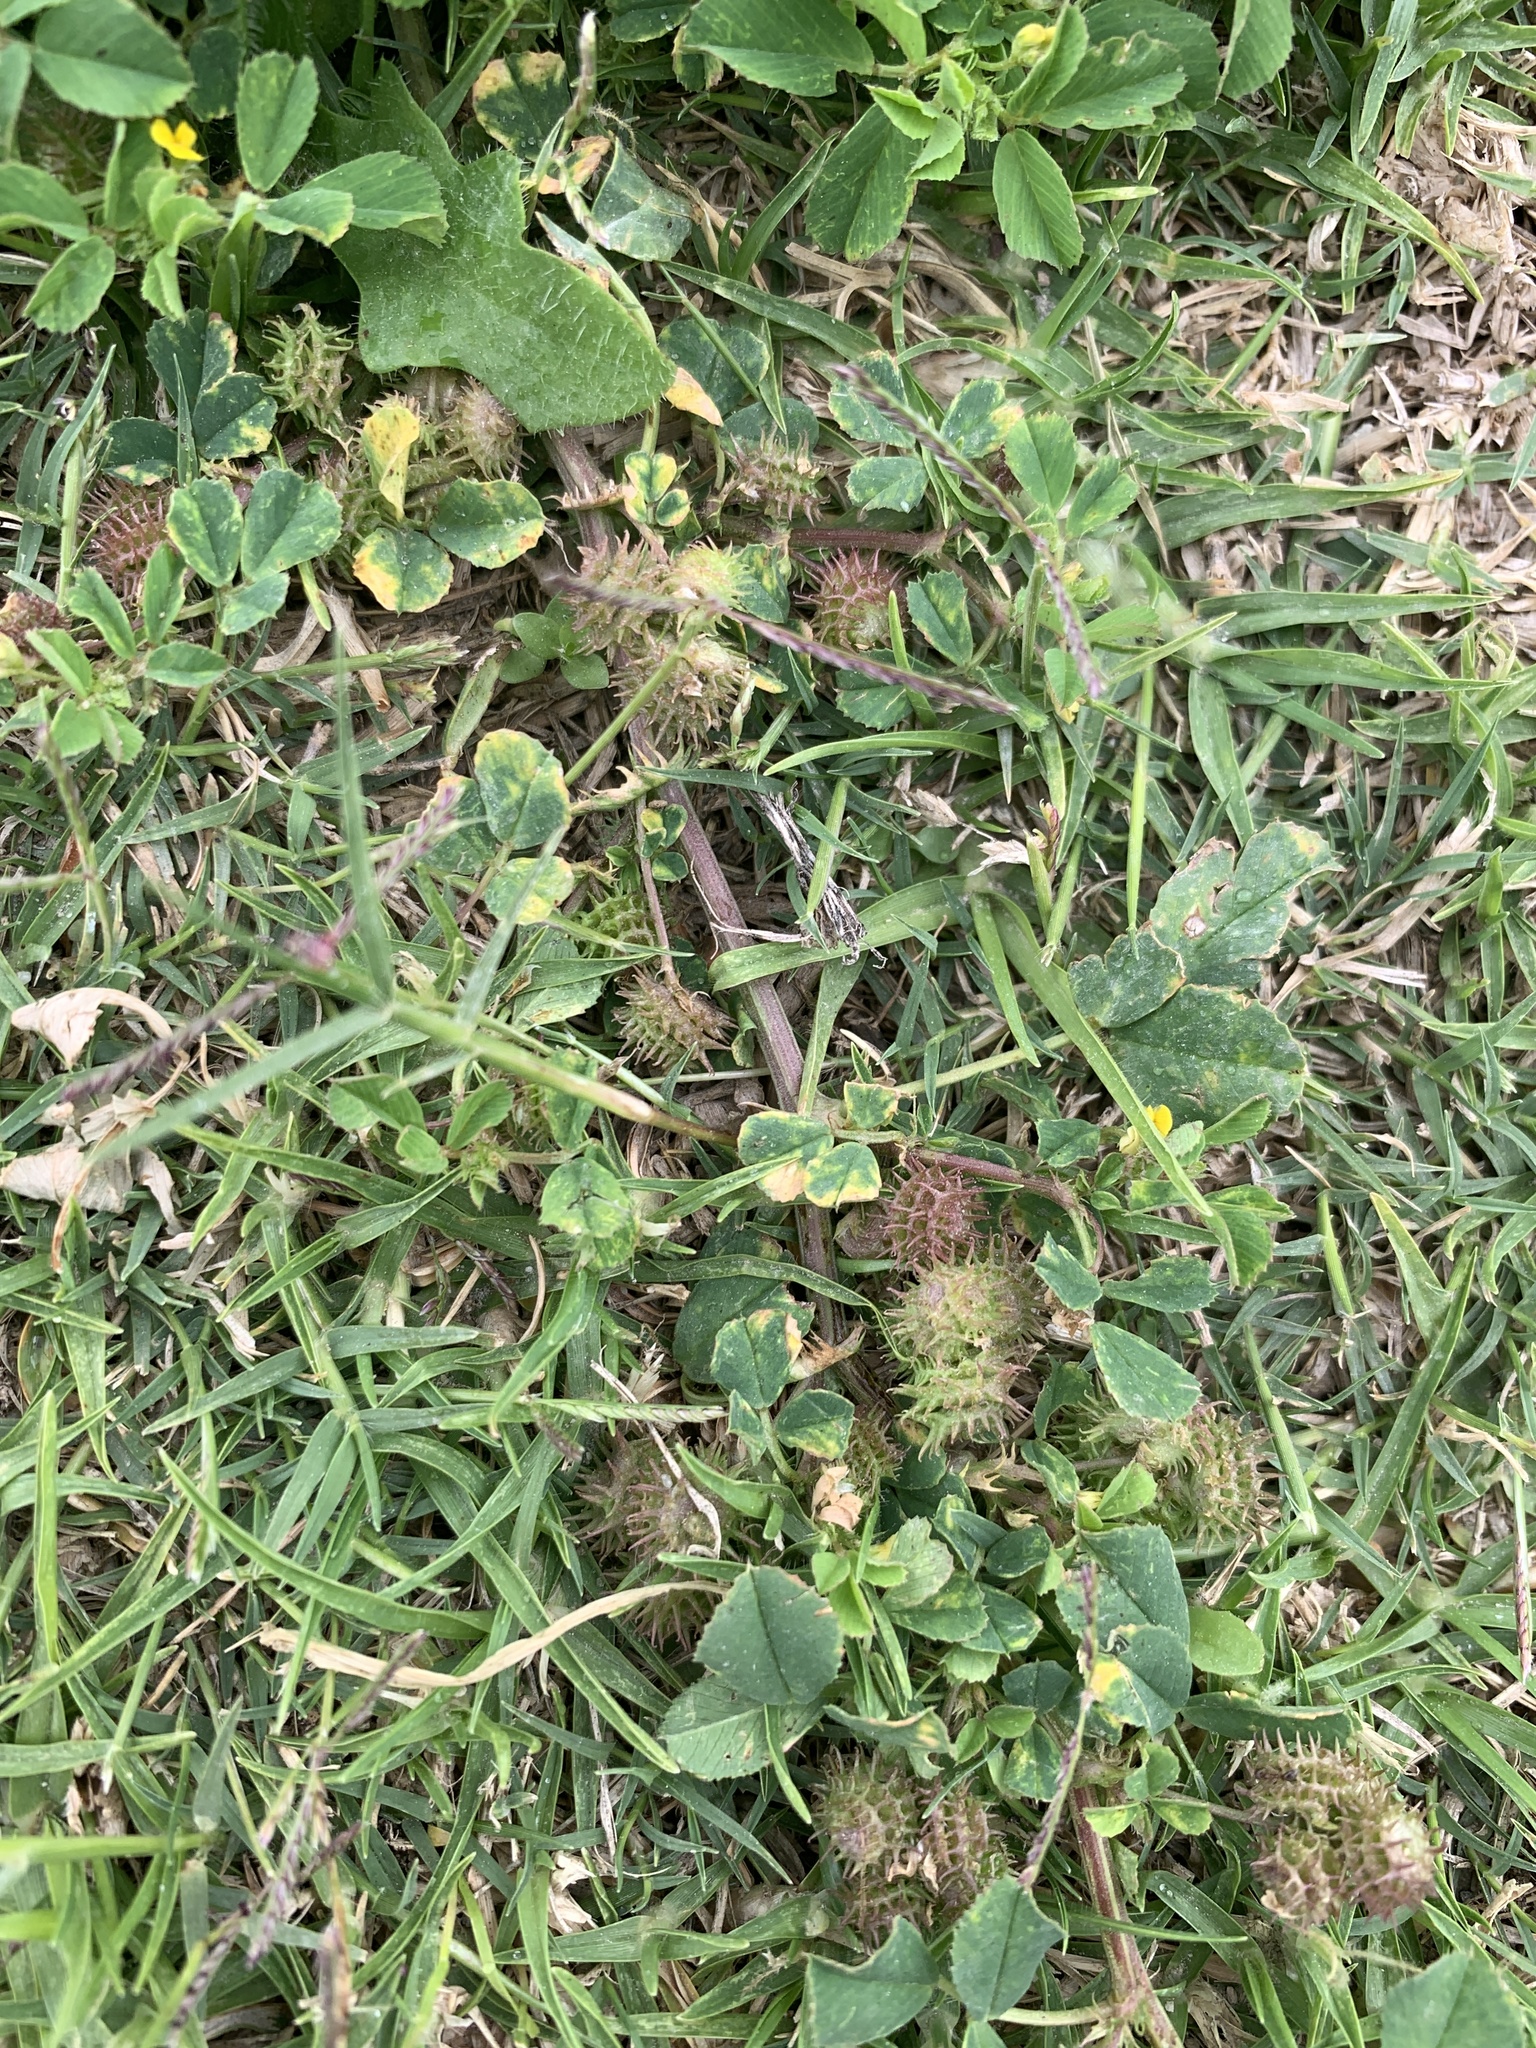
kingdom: Plantae
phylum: Tracheophyta
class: Magnoliopsida
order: Fabales
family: Fabaceae
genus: Medicago
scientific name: Medicago polymorpha
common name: Burclover
